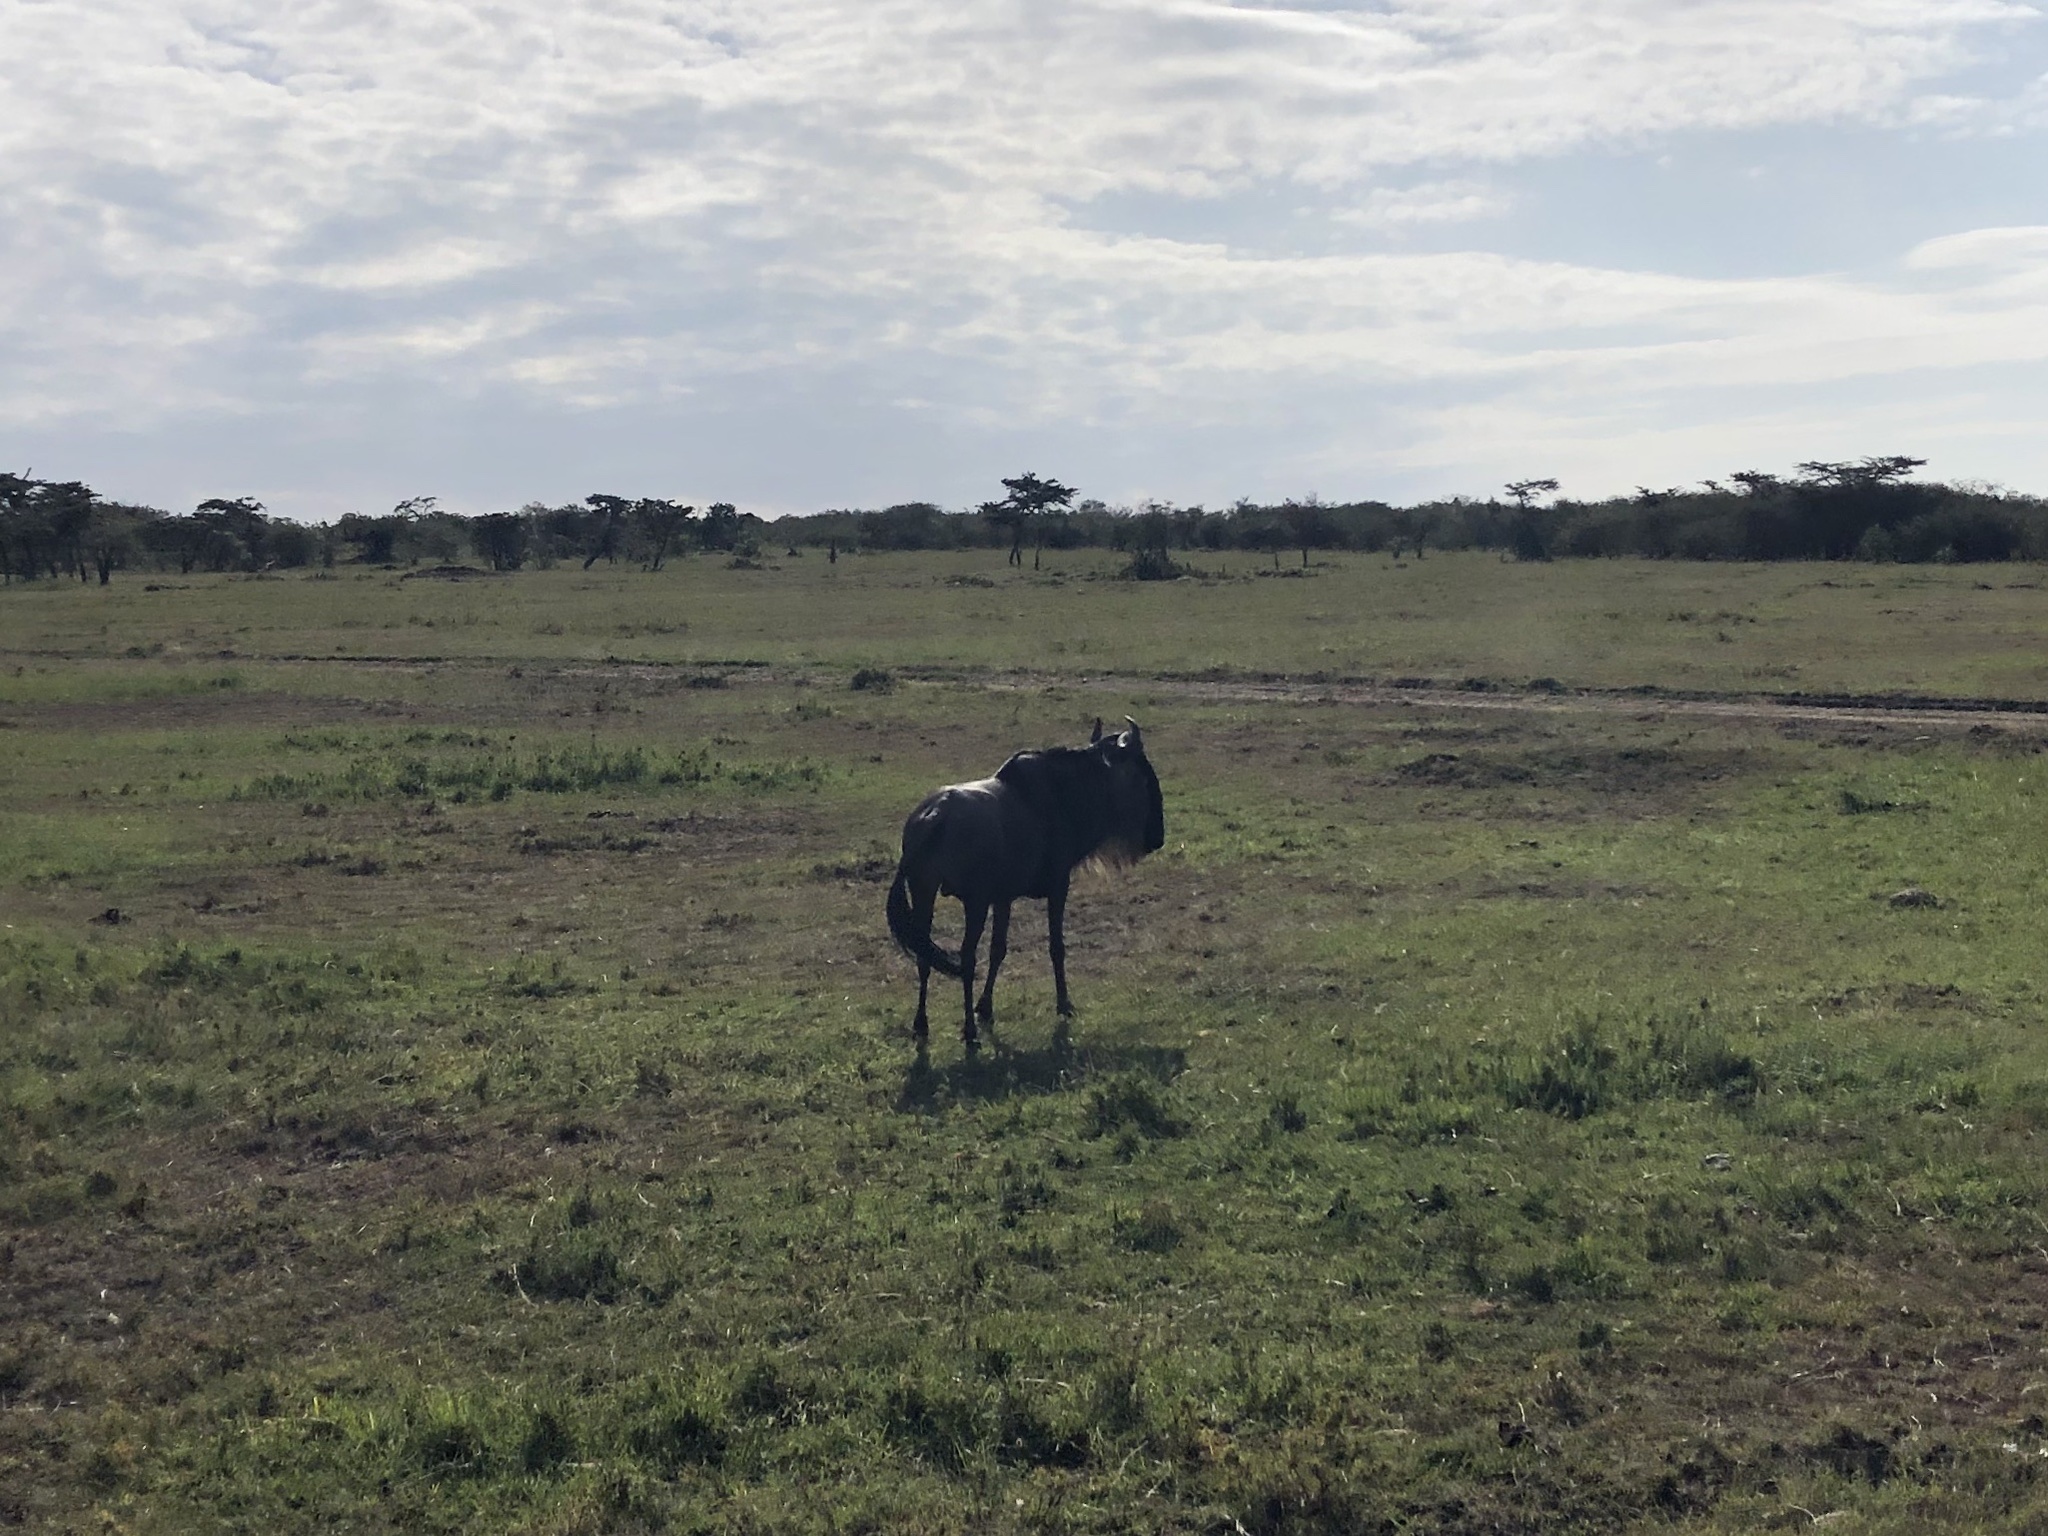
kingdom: Animalia
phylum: Chordata
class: Mammalia
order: Artiodactyla
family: Bovidae
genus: Connochaetes
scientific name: Connochaetes taurinus
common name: Blue wildebeest
